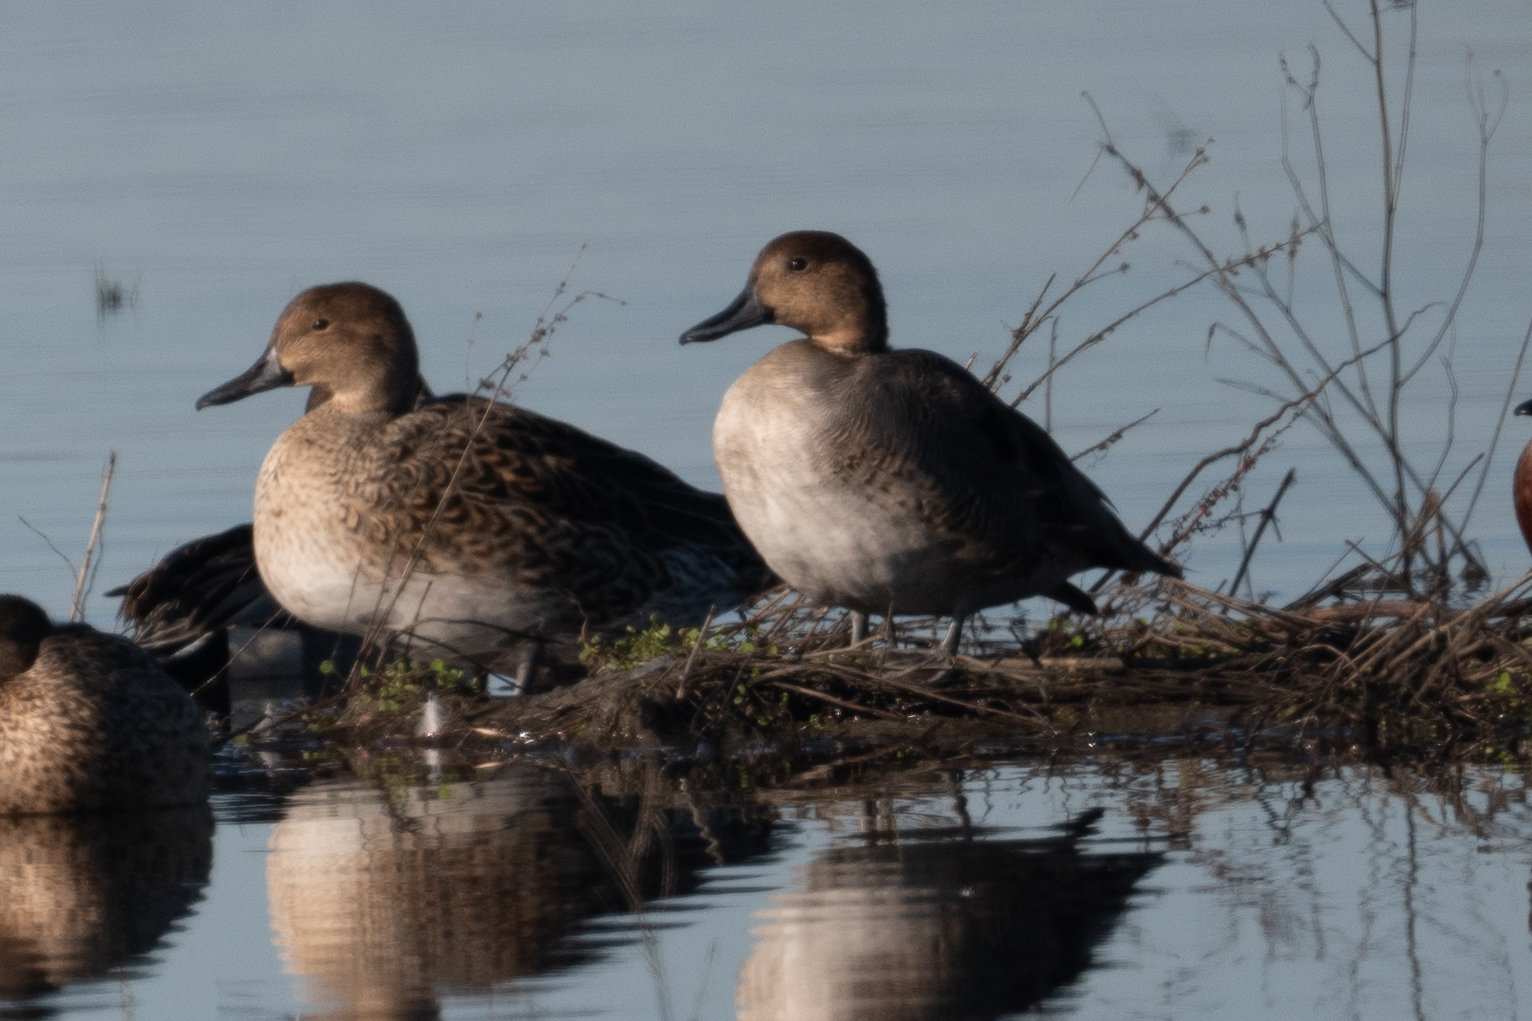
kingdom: Animalia
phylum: Chordata
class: Aves
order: Anseriformes
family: Anatidae
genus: Anas
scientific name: Anas acuta
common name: Northern pintail
